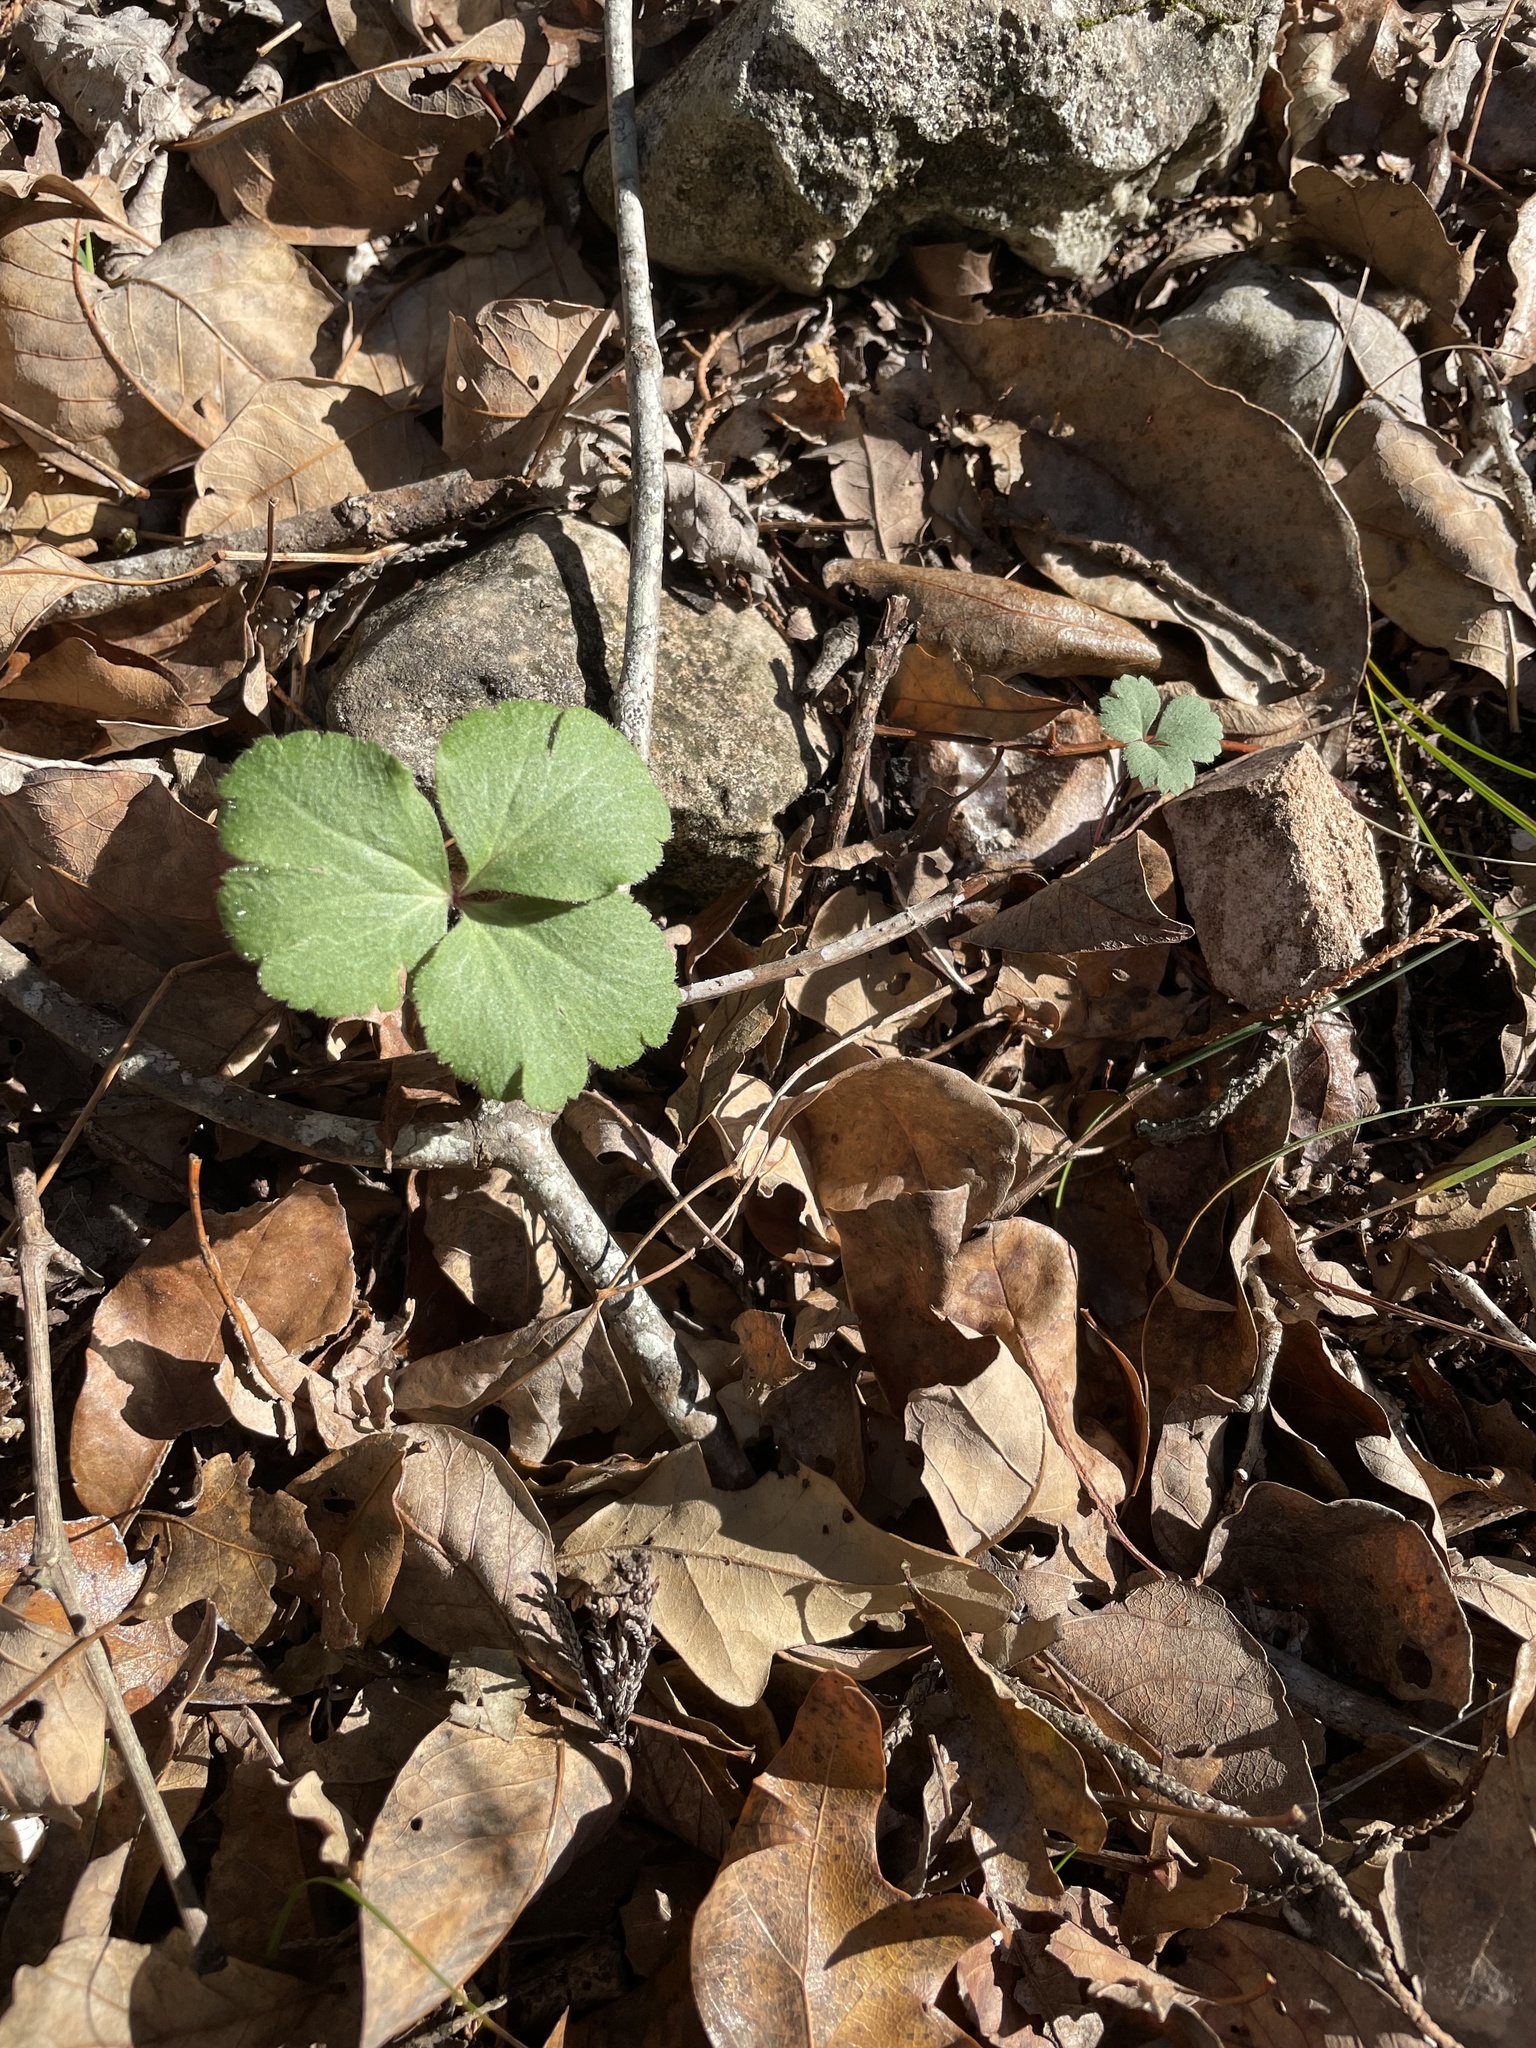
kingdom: Plantae
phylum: Tracheophyta
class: Magnoliopsida
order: Ranunculales
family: Ranunculaceae
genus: Anemone
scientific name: Anemone berlandieri
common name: Ten-petal anemone
